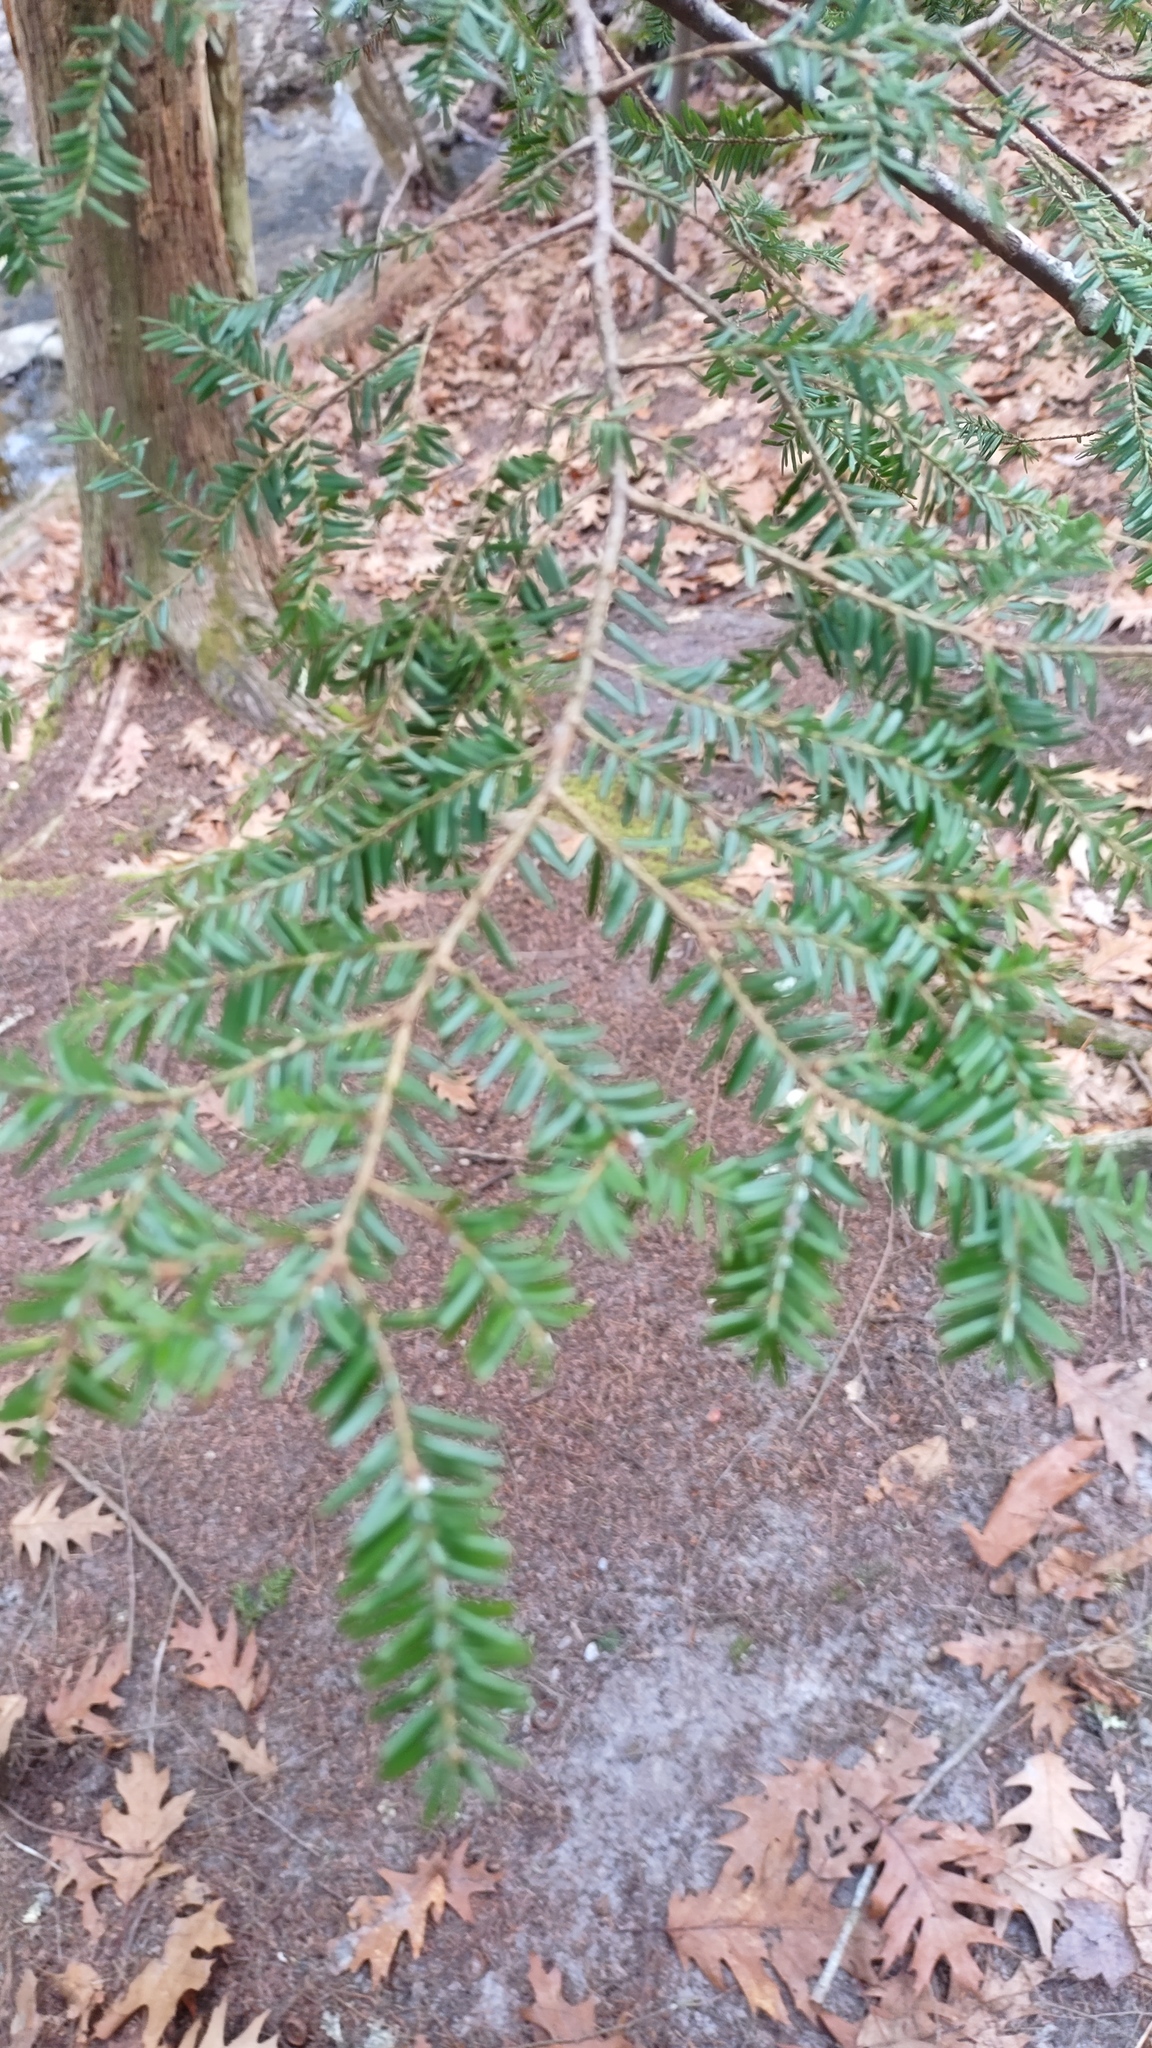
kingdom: Plantae
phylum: Tracheophyta
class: Pinopsida
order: Pinales
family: Pinaceae
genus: Tsuga
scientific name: Tsuga canadensis
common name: Eastern hemlock
